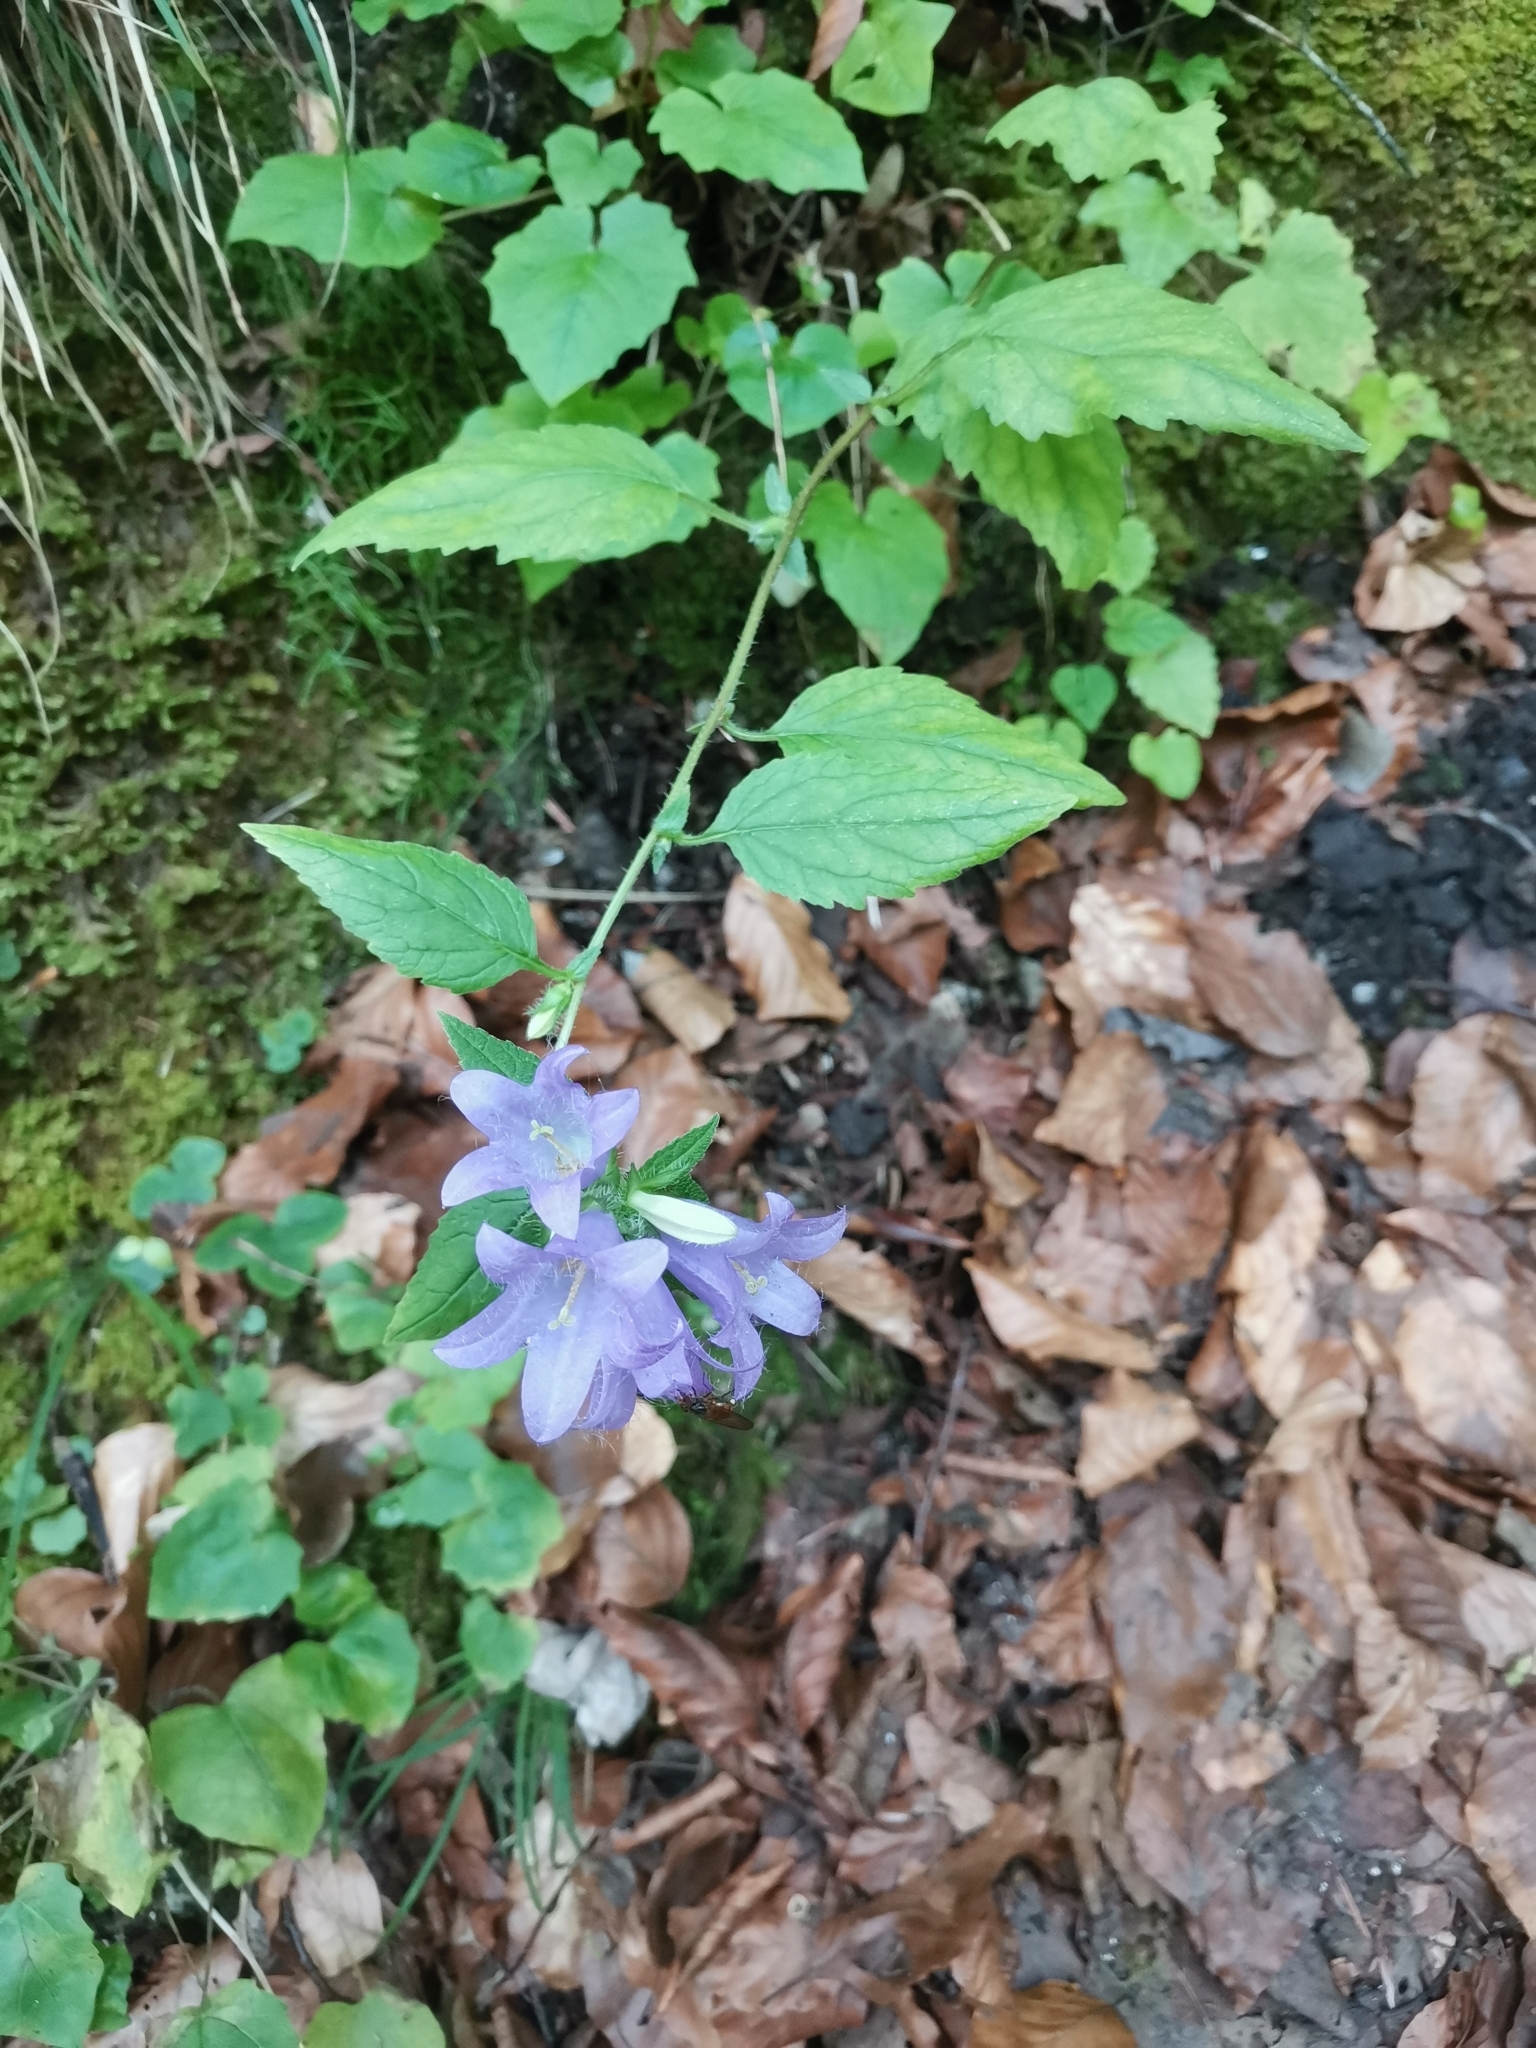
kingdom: Plantae
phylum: Tracheophyta
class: Magnoliopsida
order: Asterales
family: Campanulaceae
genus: Campanula
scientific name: Campanula trachelium
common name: Nettle-leaved bellflower
